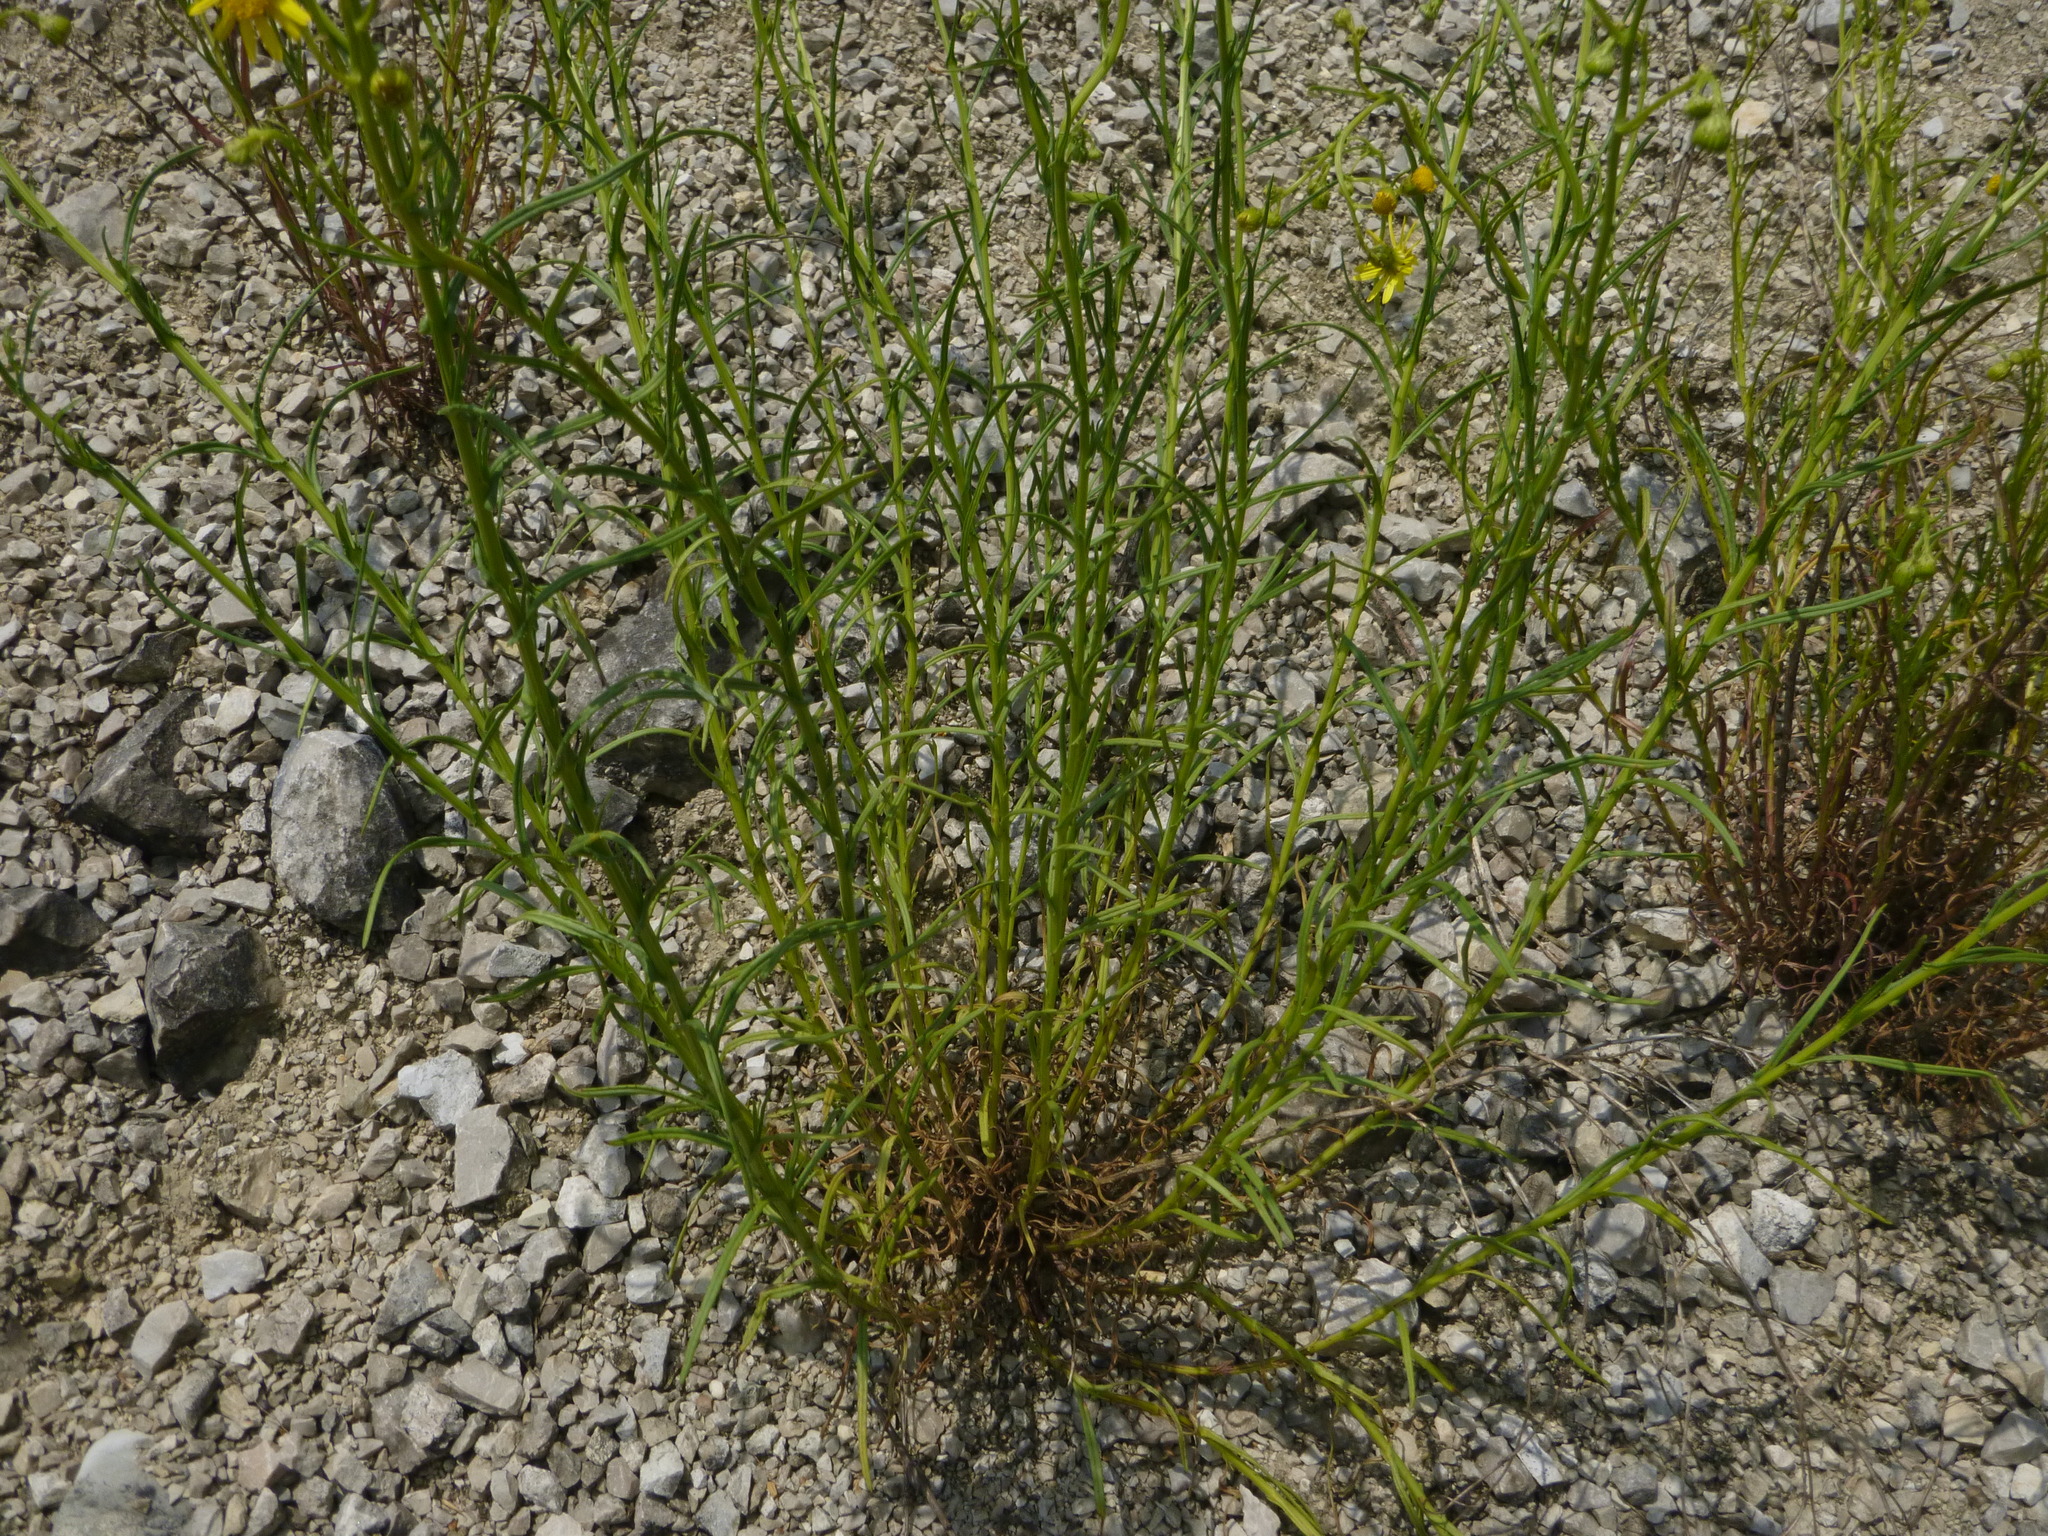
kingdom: Plantae
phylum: Tracheophyta
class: Magnoliopsida
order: Asterales
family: Asteraceae
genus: Senecio
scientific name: Senecio inaequidens
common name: Narrow-leaved ragwort
